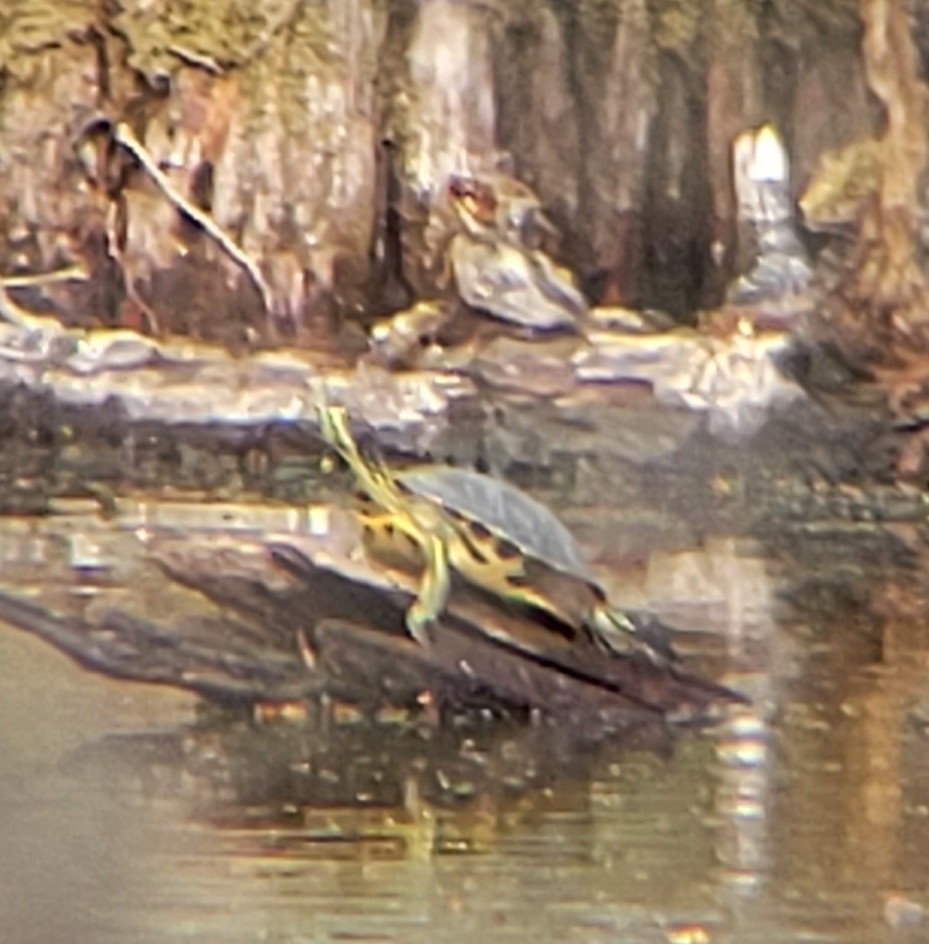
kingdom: Animalia
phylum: Chordata
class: Testudines
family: Emydidae
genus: Trachemys
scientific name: Trachemys scripta
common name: Slider
